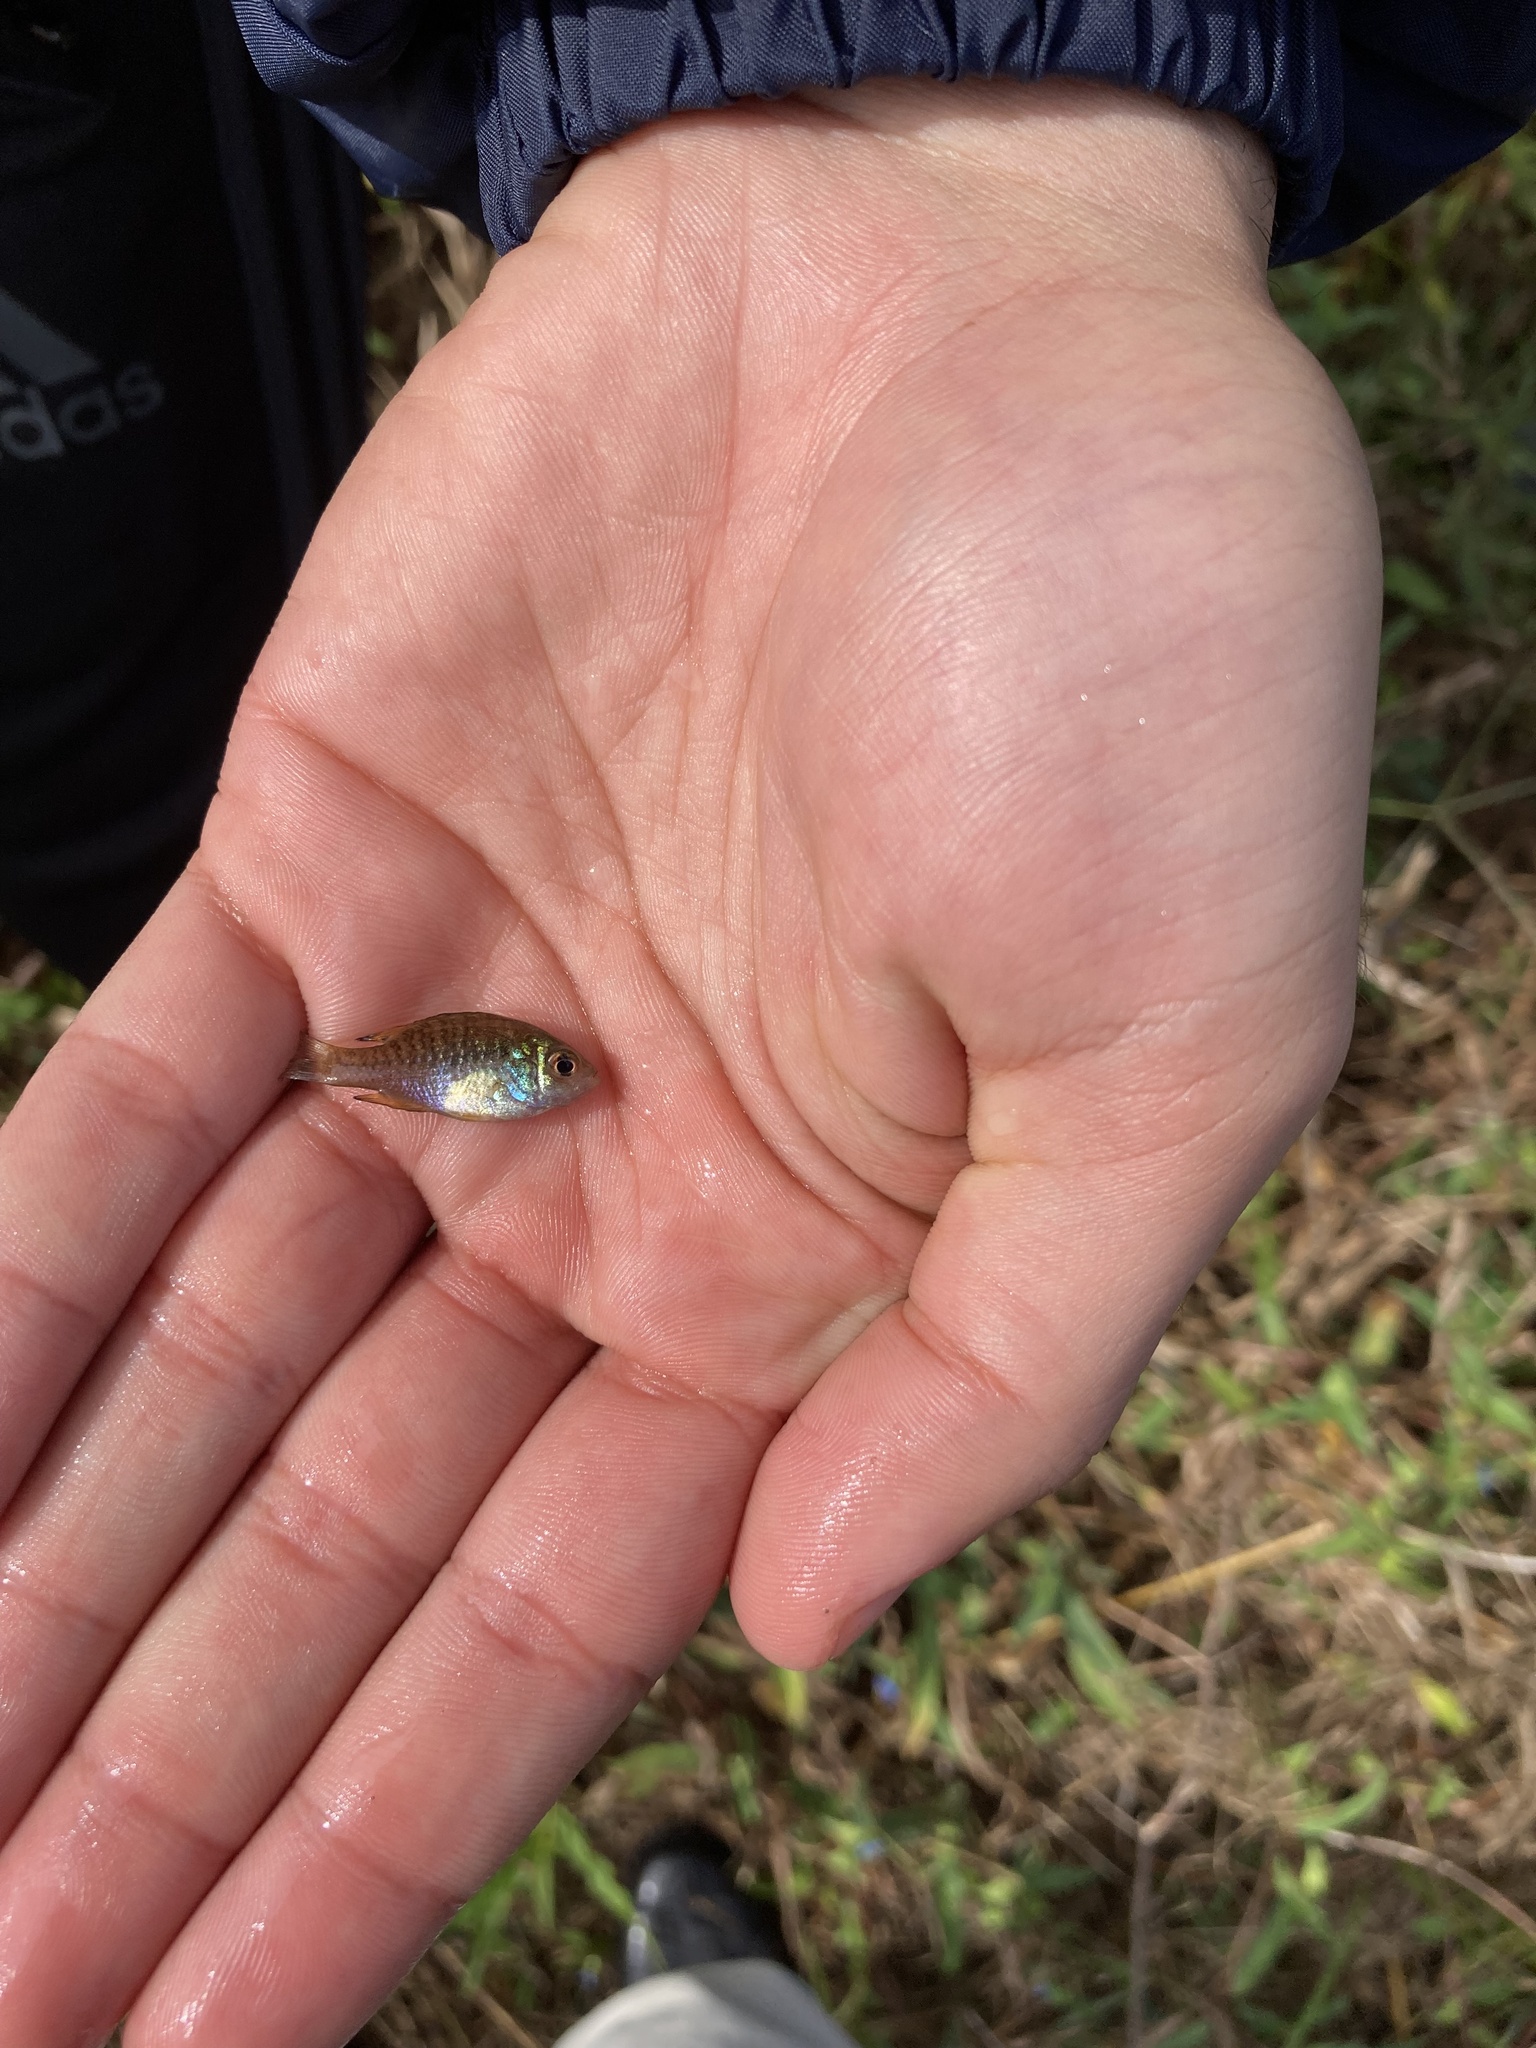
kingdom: Animalia
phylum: Chordata
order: Perciformes
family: Centrarchidae
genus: Lepomis
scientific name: Lepomis symmetricus
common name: Bantam sunfish
